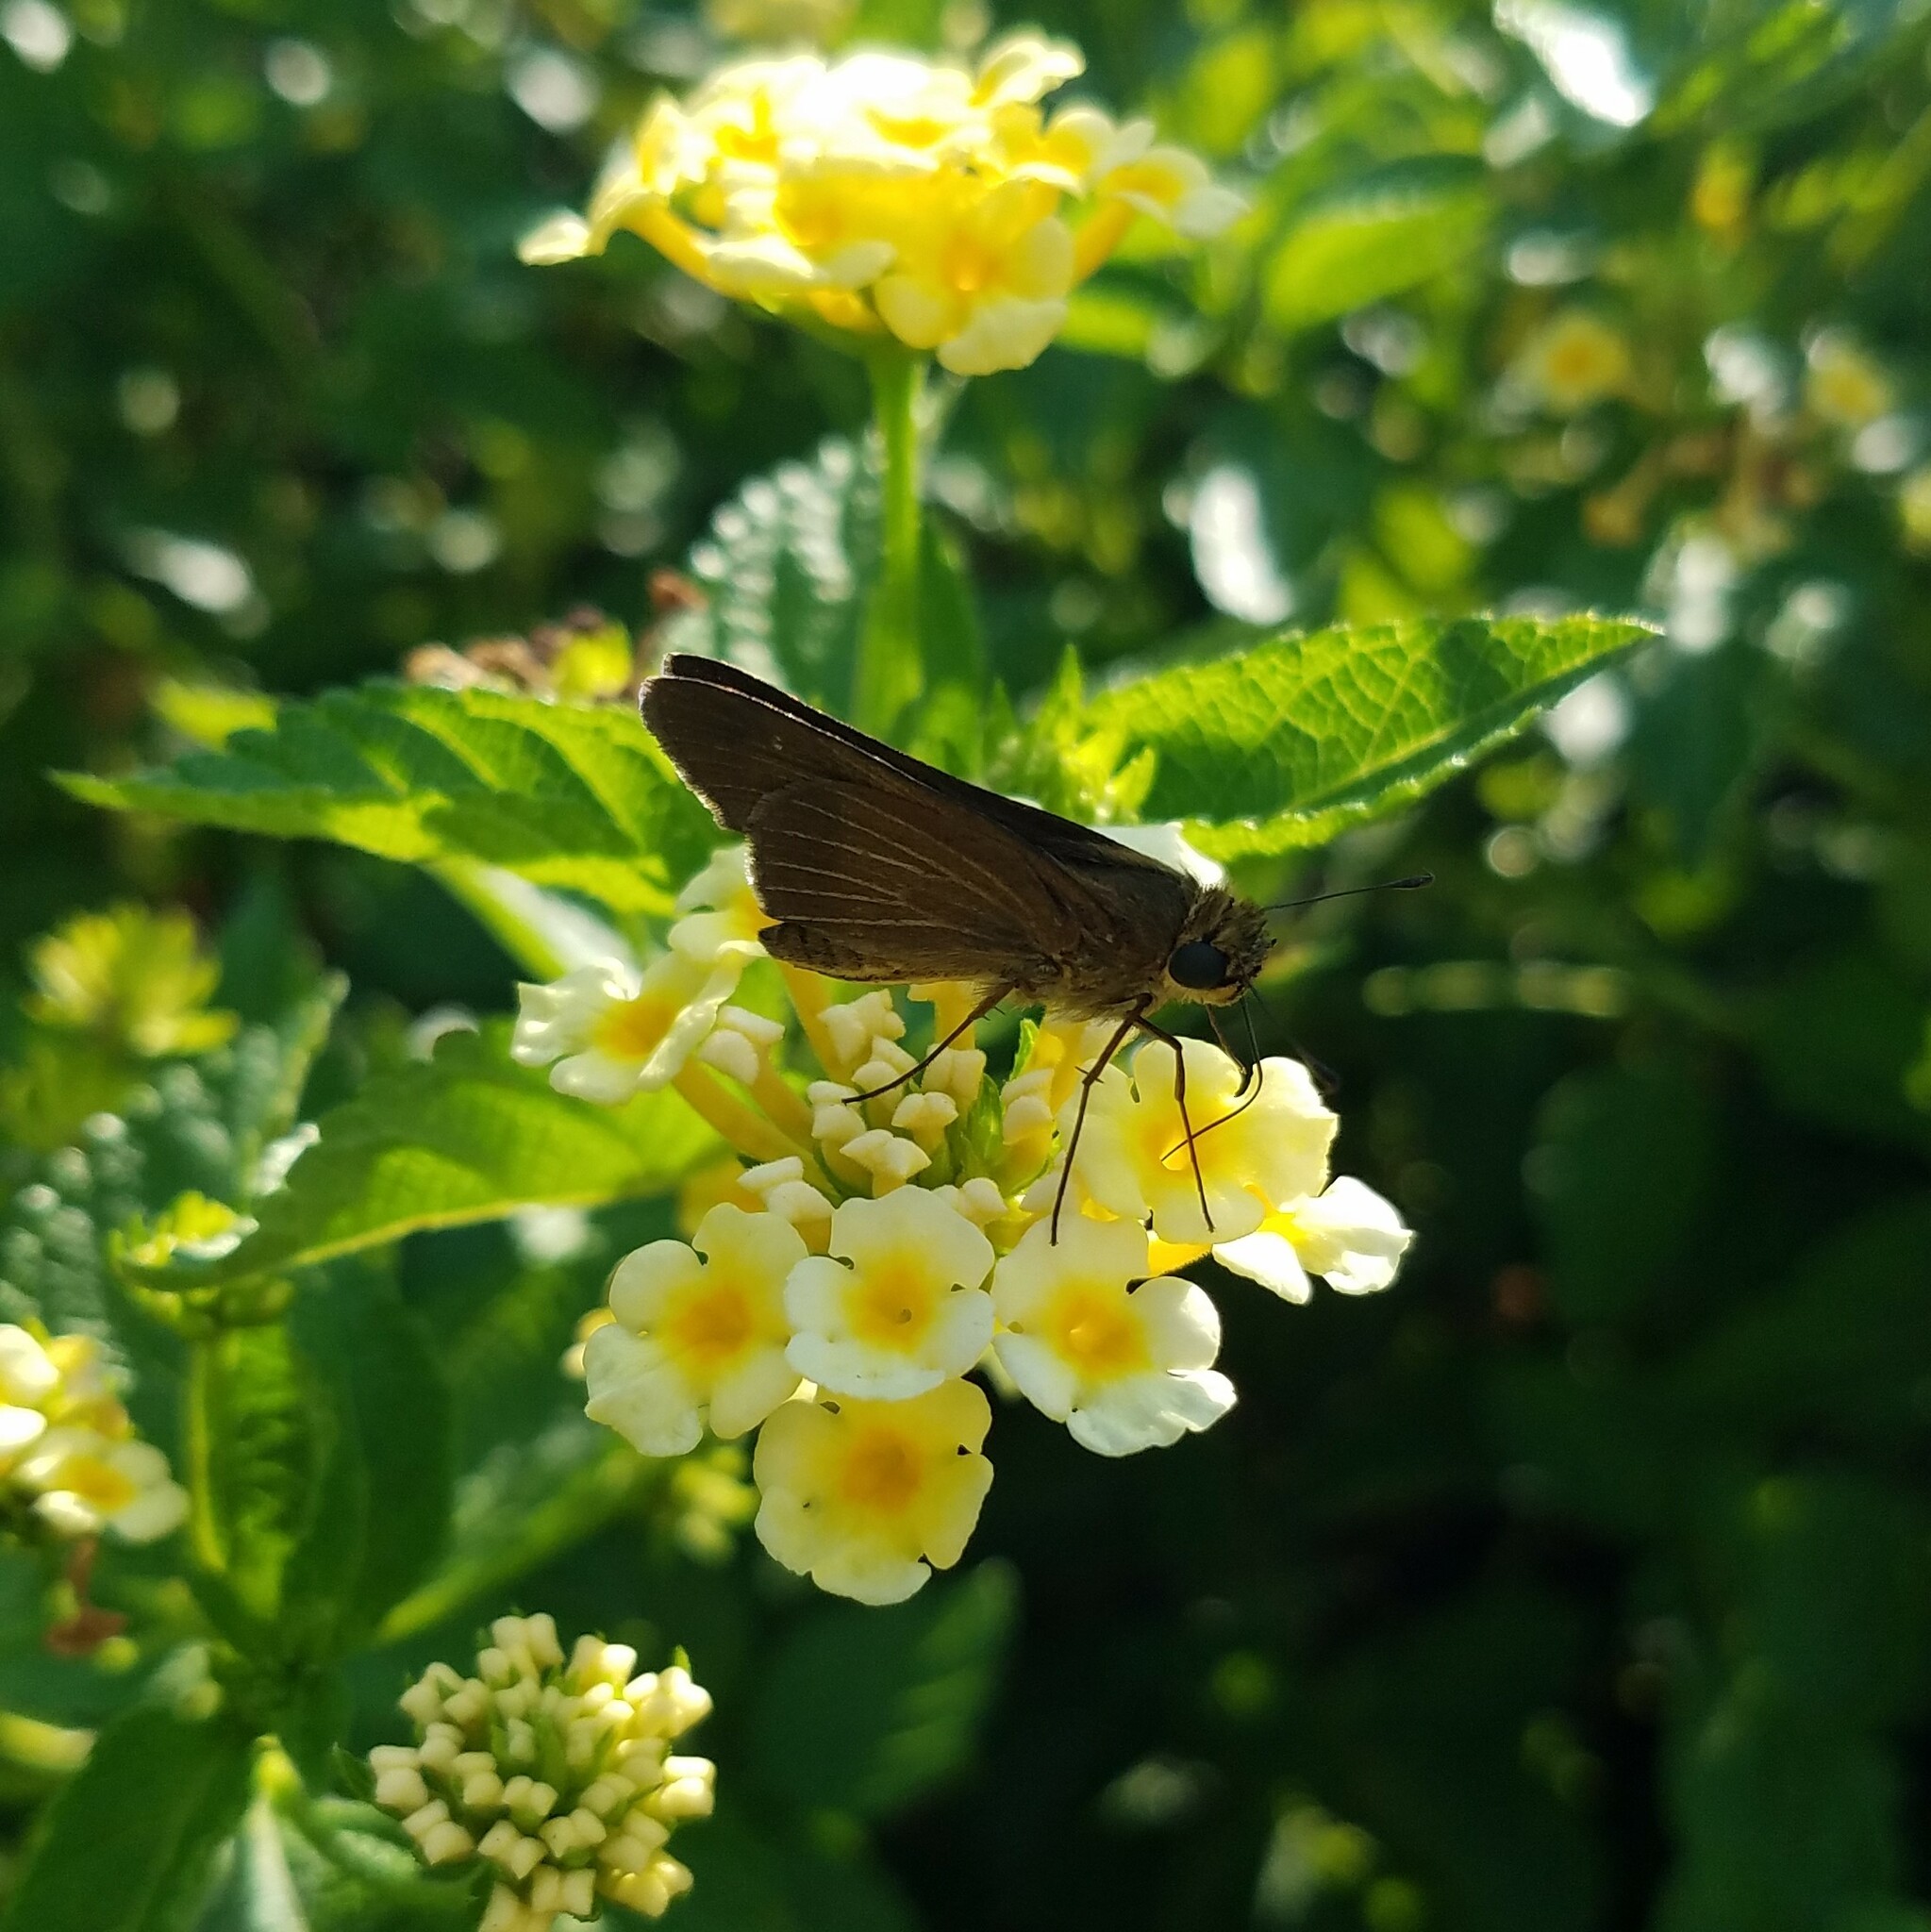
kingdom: Animalia
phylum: Arthropoda
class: Insecta
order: Lepidoptera
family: Hesperiidae
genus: Panoquina
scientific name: Panoquina ocola
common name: Ocola skipper
